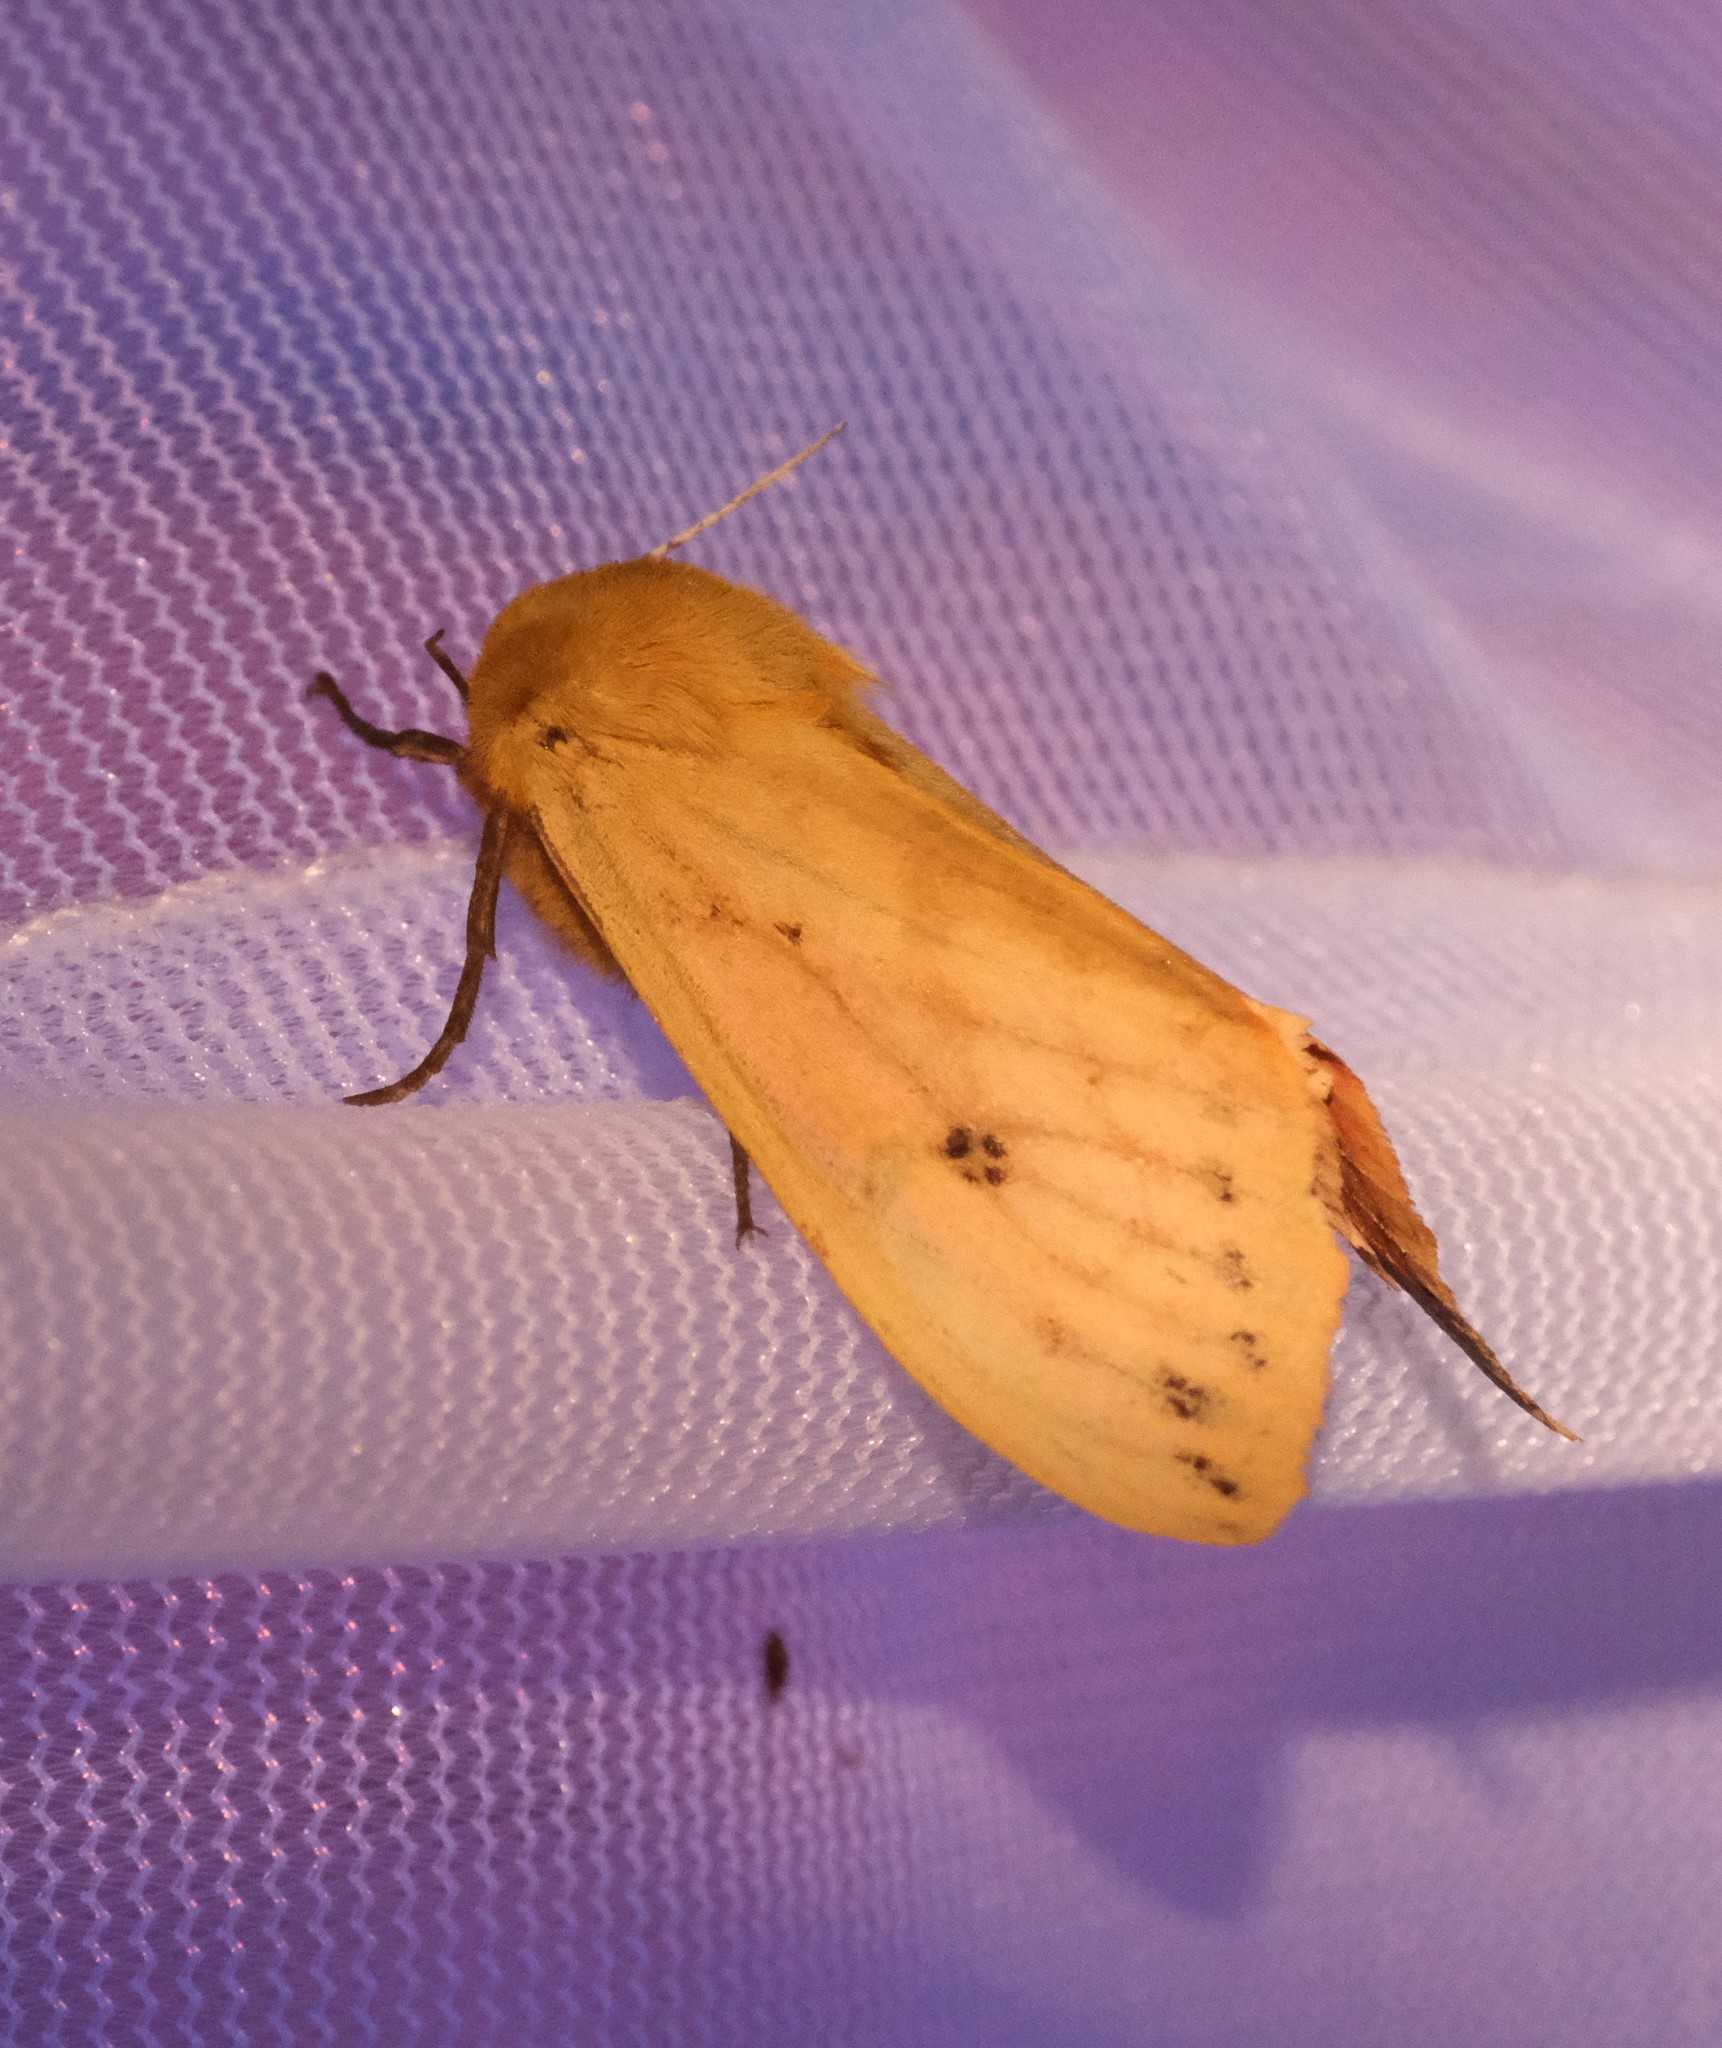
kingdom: Animalia
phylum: Arthropoda
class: Insecta
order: Lepidoptera
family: Erebidae
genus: Pyrrharctia
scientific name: Pyrrharctia isabella
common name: Isabella tiger moth
